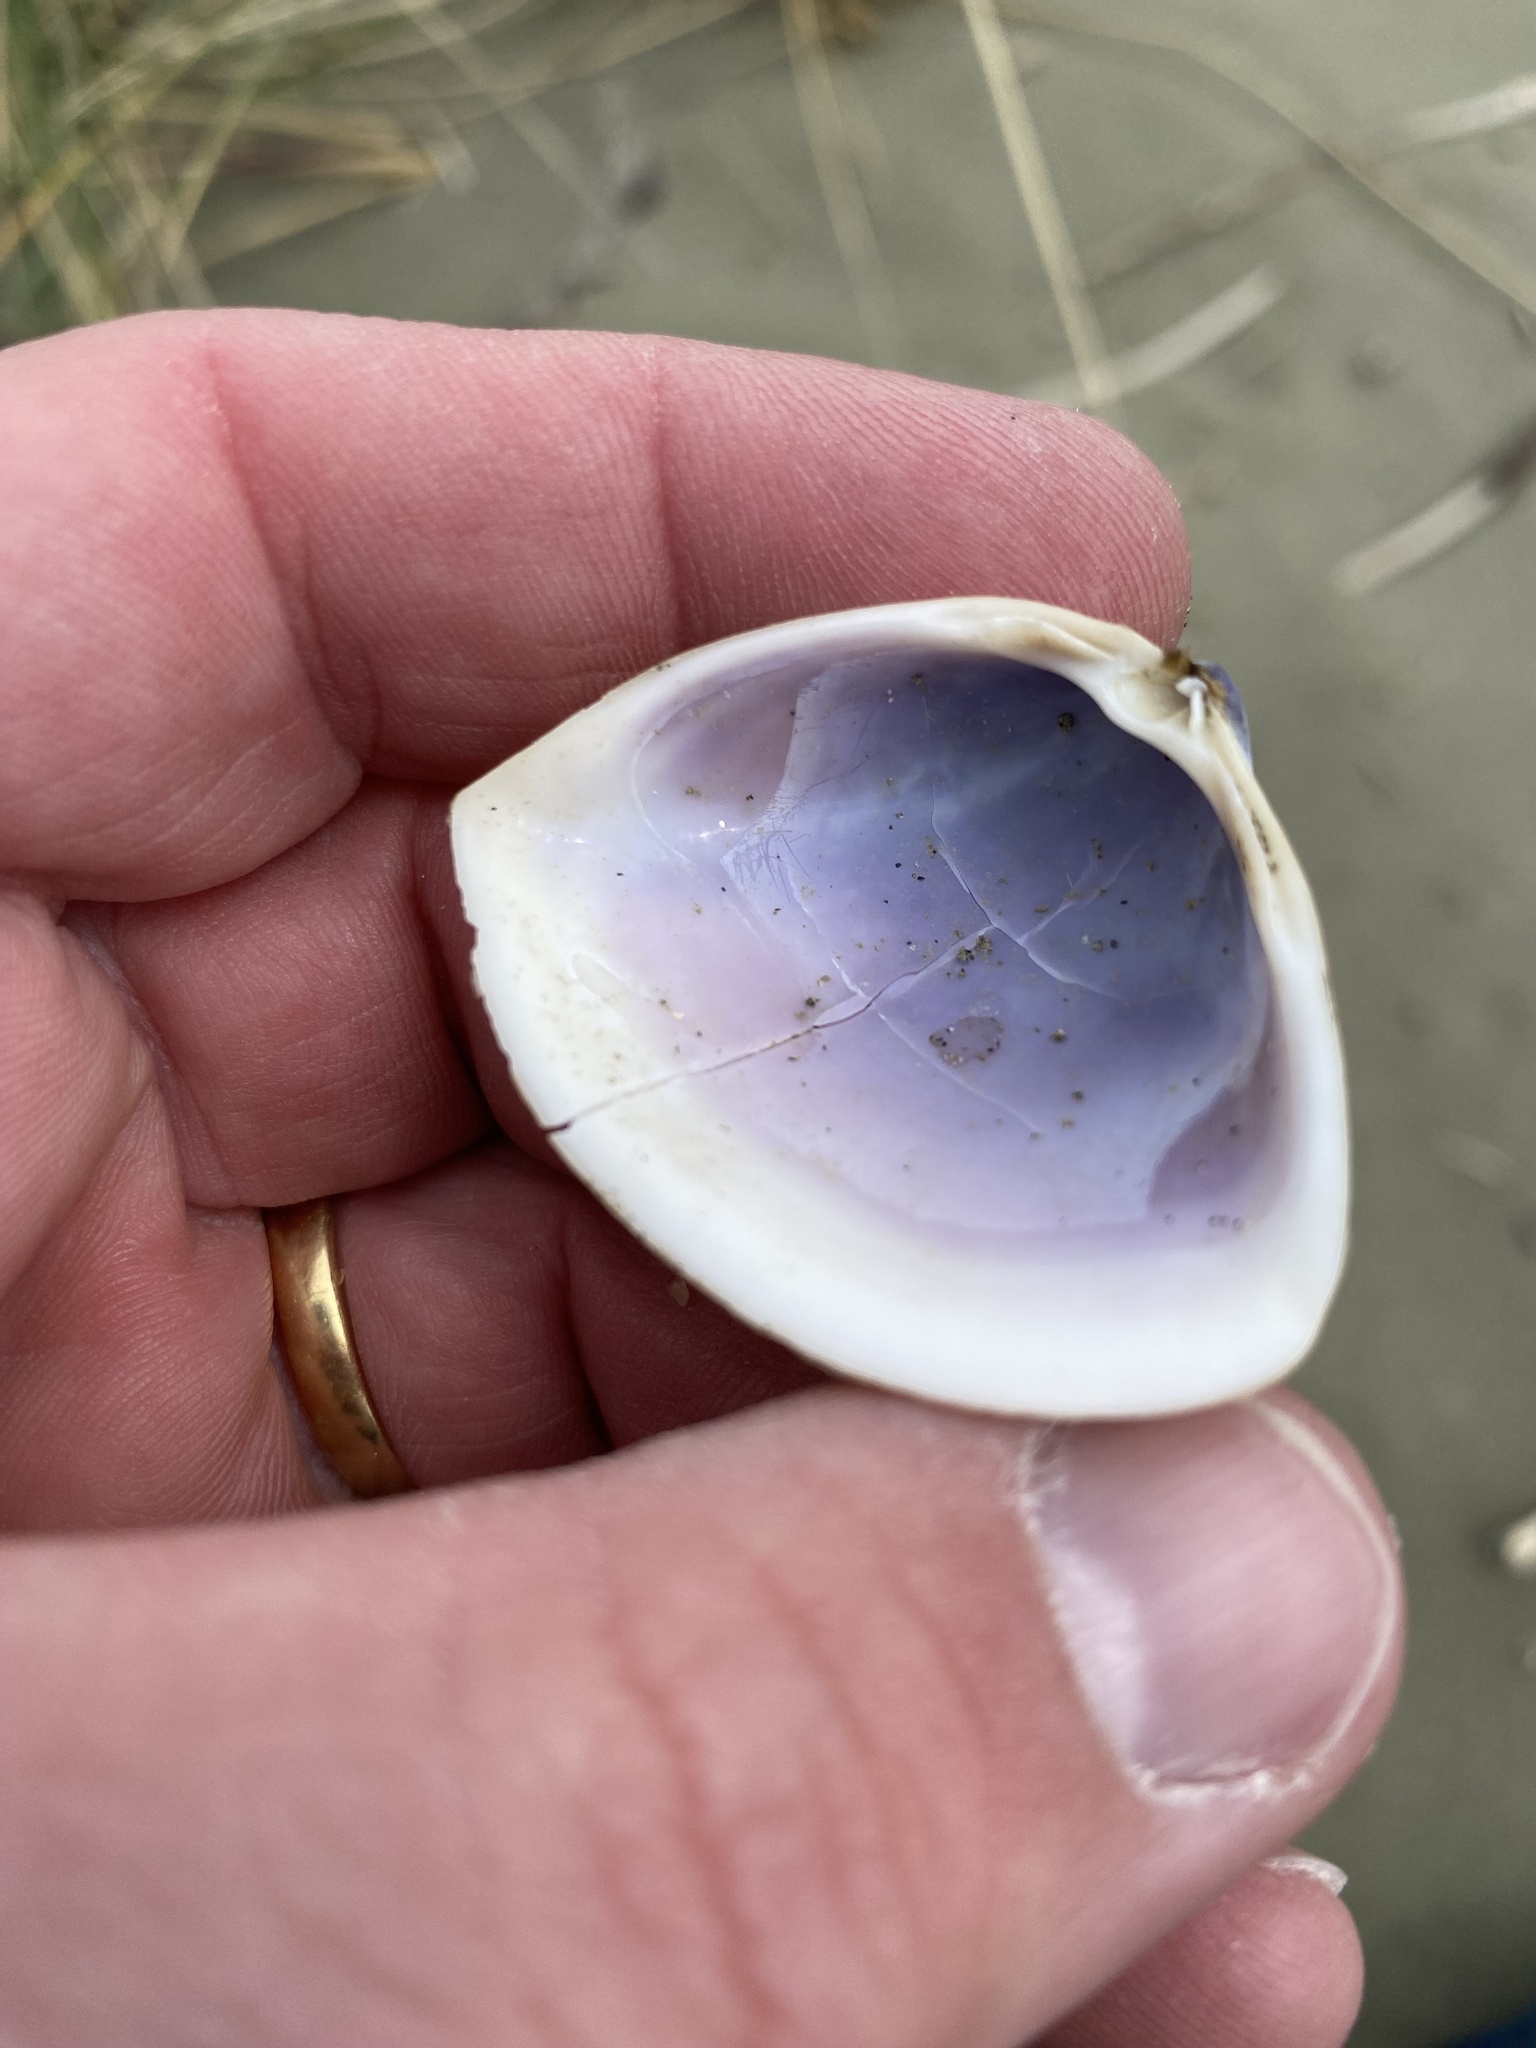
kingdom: Animalia
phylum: Mollusca
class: Bivalvia
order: Venerida
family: Mactridae
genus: Crassula
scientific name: Crassula aequilatera
